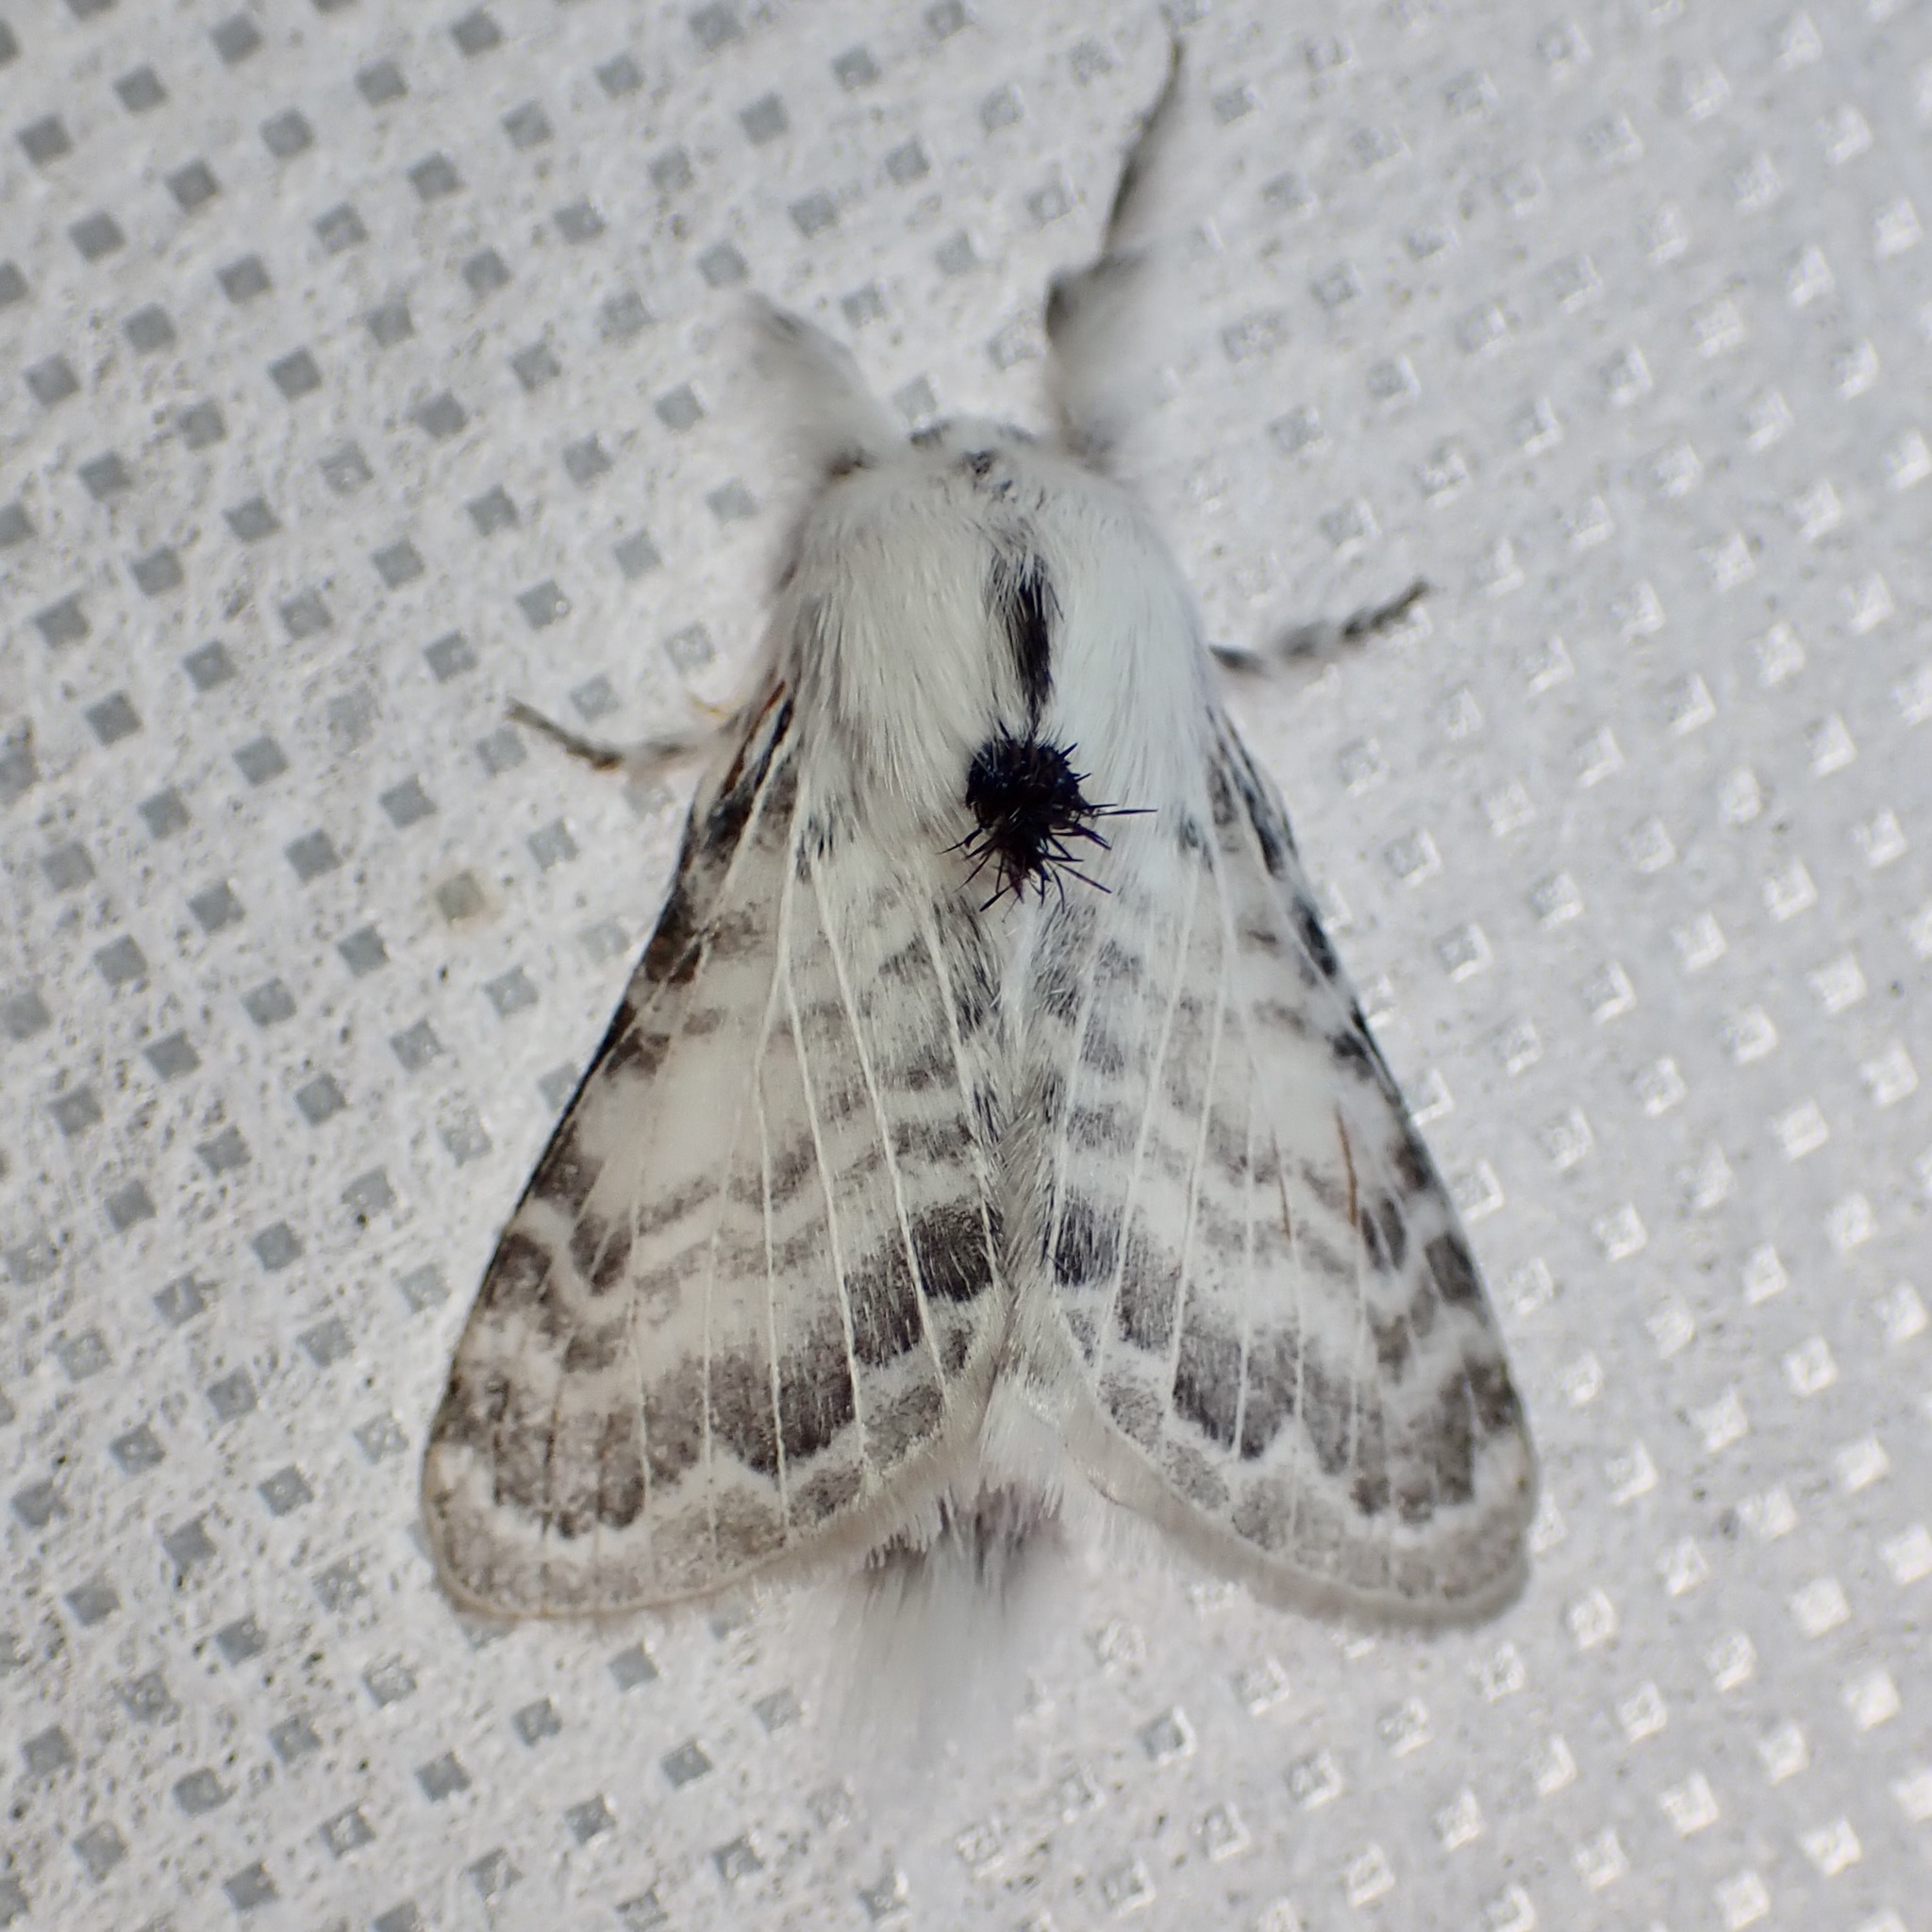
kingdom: Animalia
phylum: Arthropoda
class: Insecta
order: Lepidoptera
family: Lasiocampidae
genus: Apotolype
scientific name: Apotolype brevicrista
